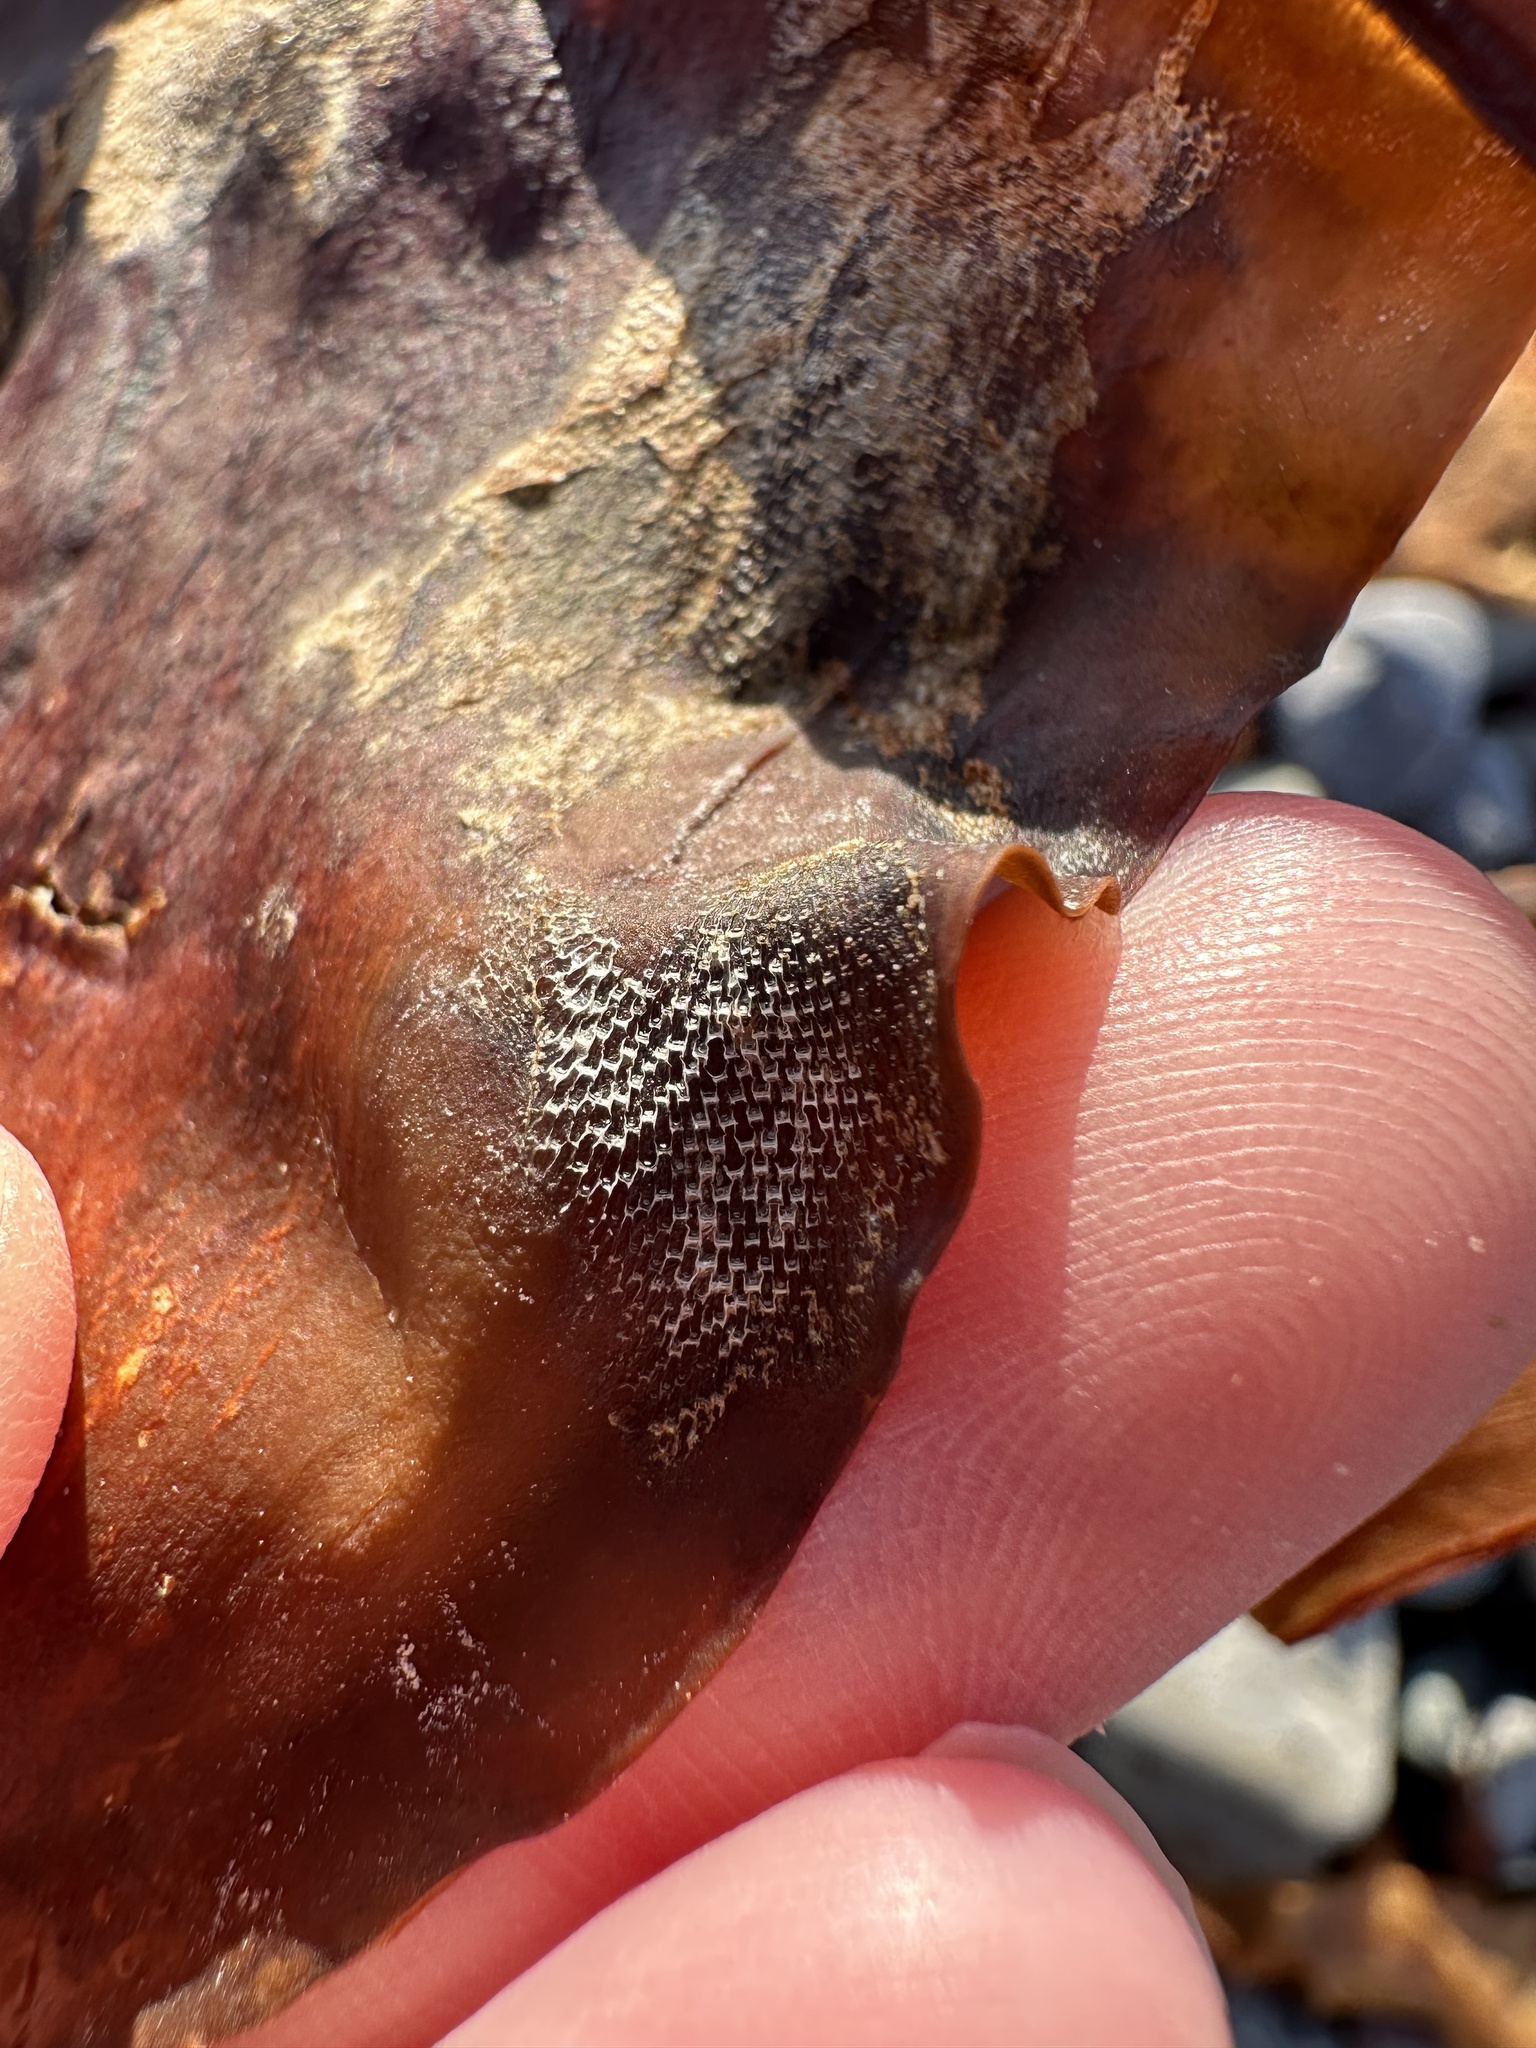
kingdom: Animalia
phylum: Bryozoa
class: Gymnolaemata
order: Cheilostomatida
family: Membraniporidae
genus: Membranipora
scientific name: Membranipora membranacea
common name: Sea mat
